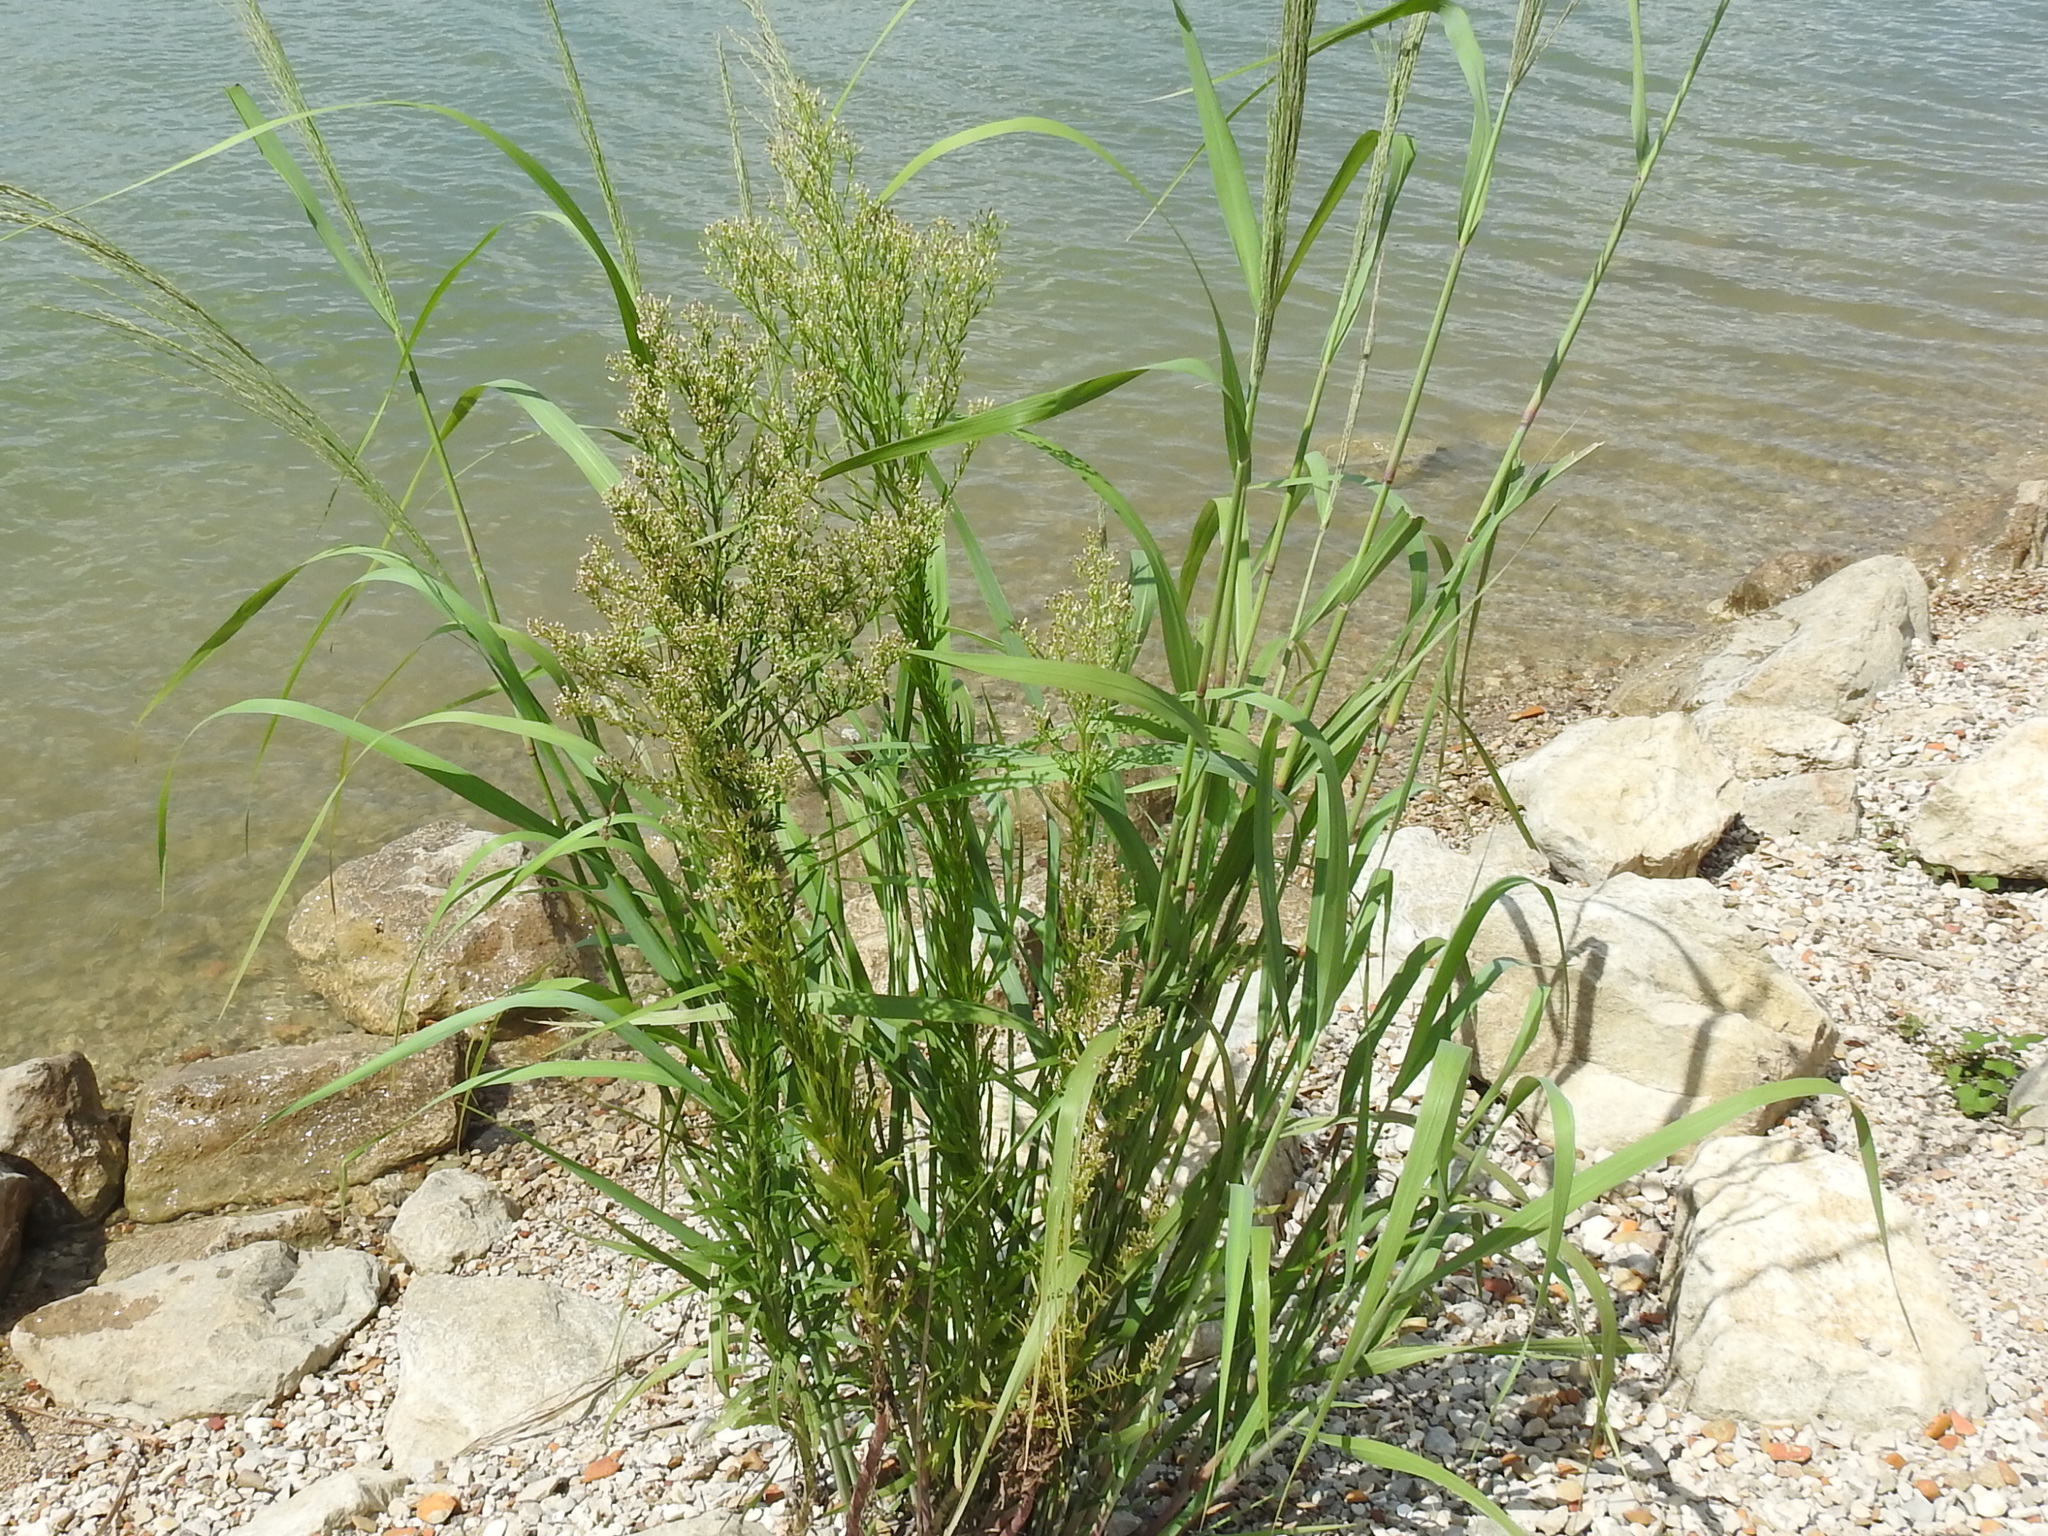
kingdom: Plantae
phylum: Tracheophyta
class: Magnoliopsida
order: Asterales
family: Asteraceae
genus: Erigeron
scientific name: Erigeron canadensis
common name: Canadian fleabane
